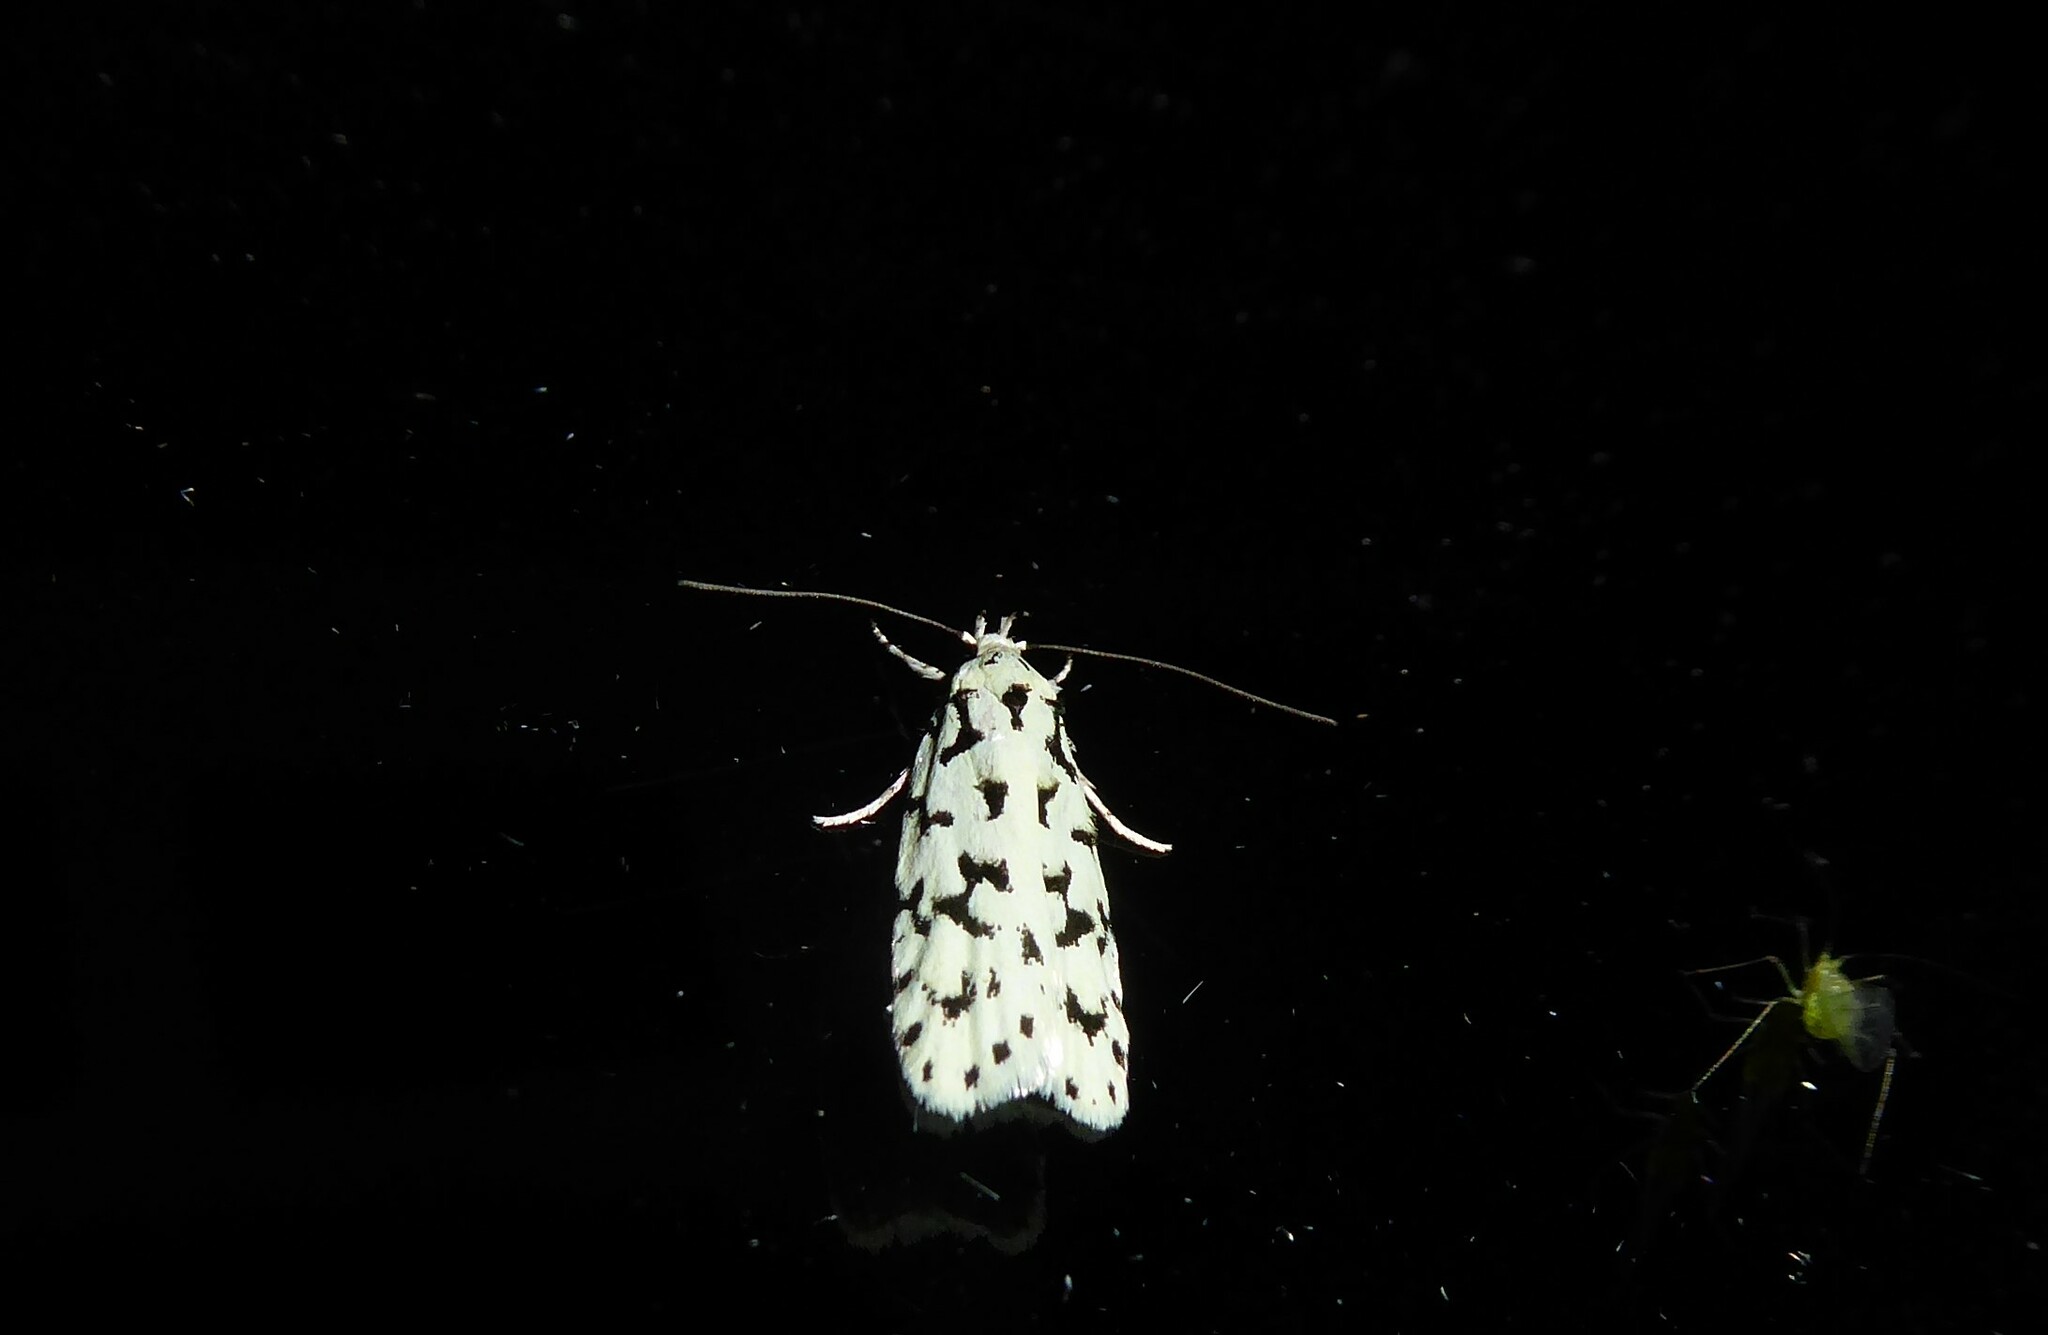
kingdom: Animalia
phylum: Arthropoda
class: Insecta
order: Lepidoptera
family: Oecophoridae
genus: Izatha
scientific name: Izatha huttoni
